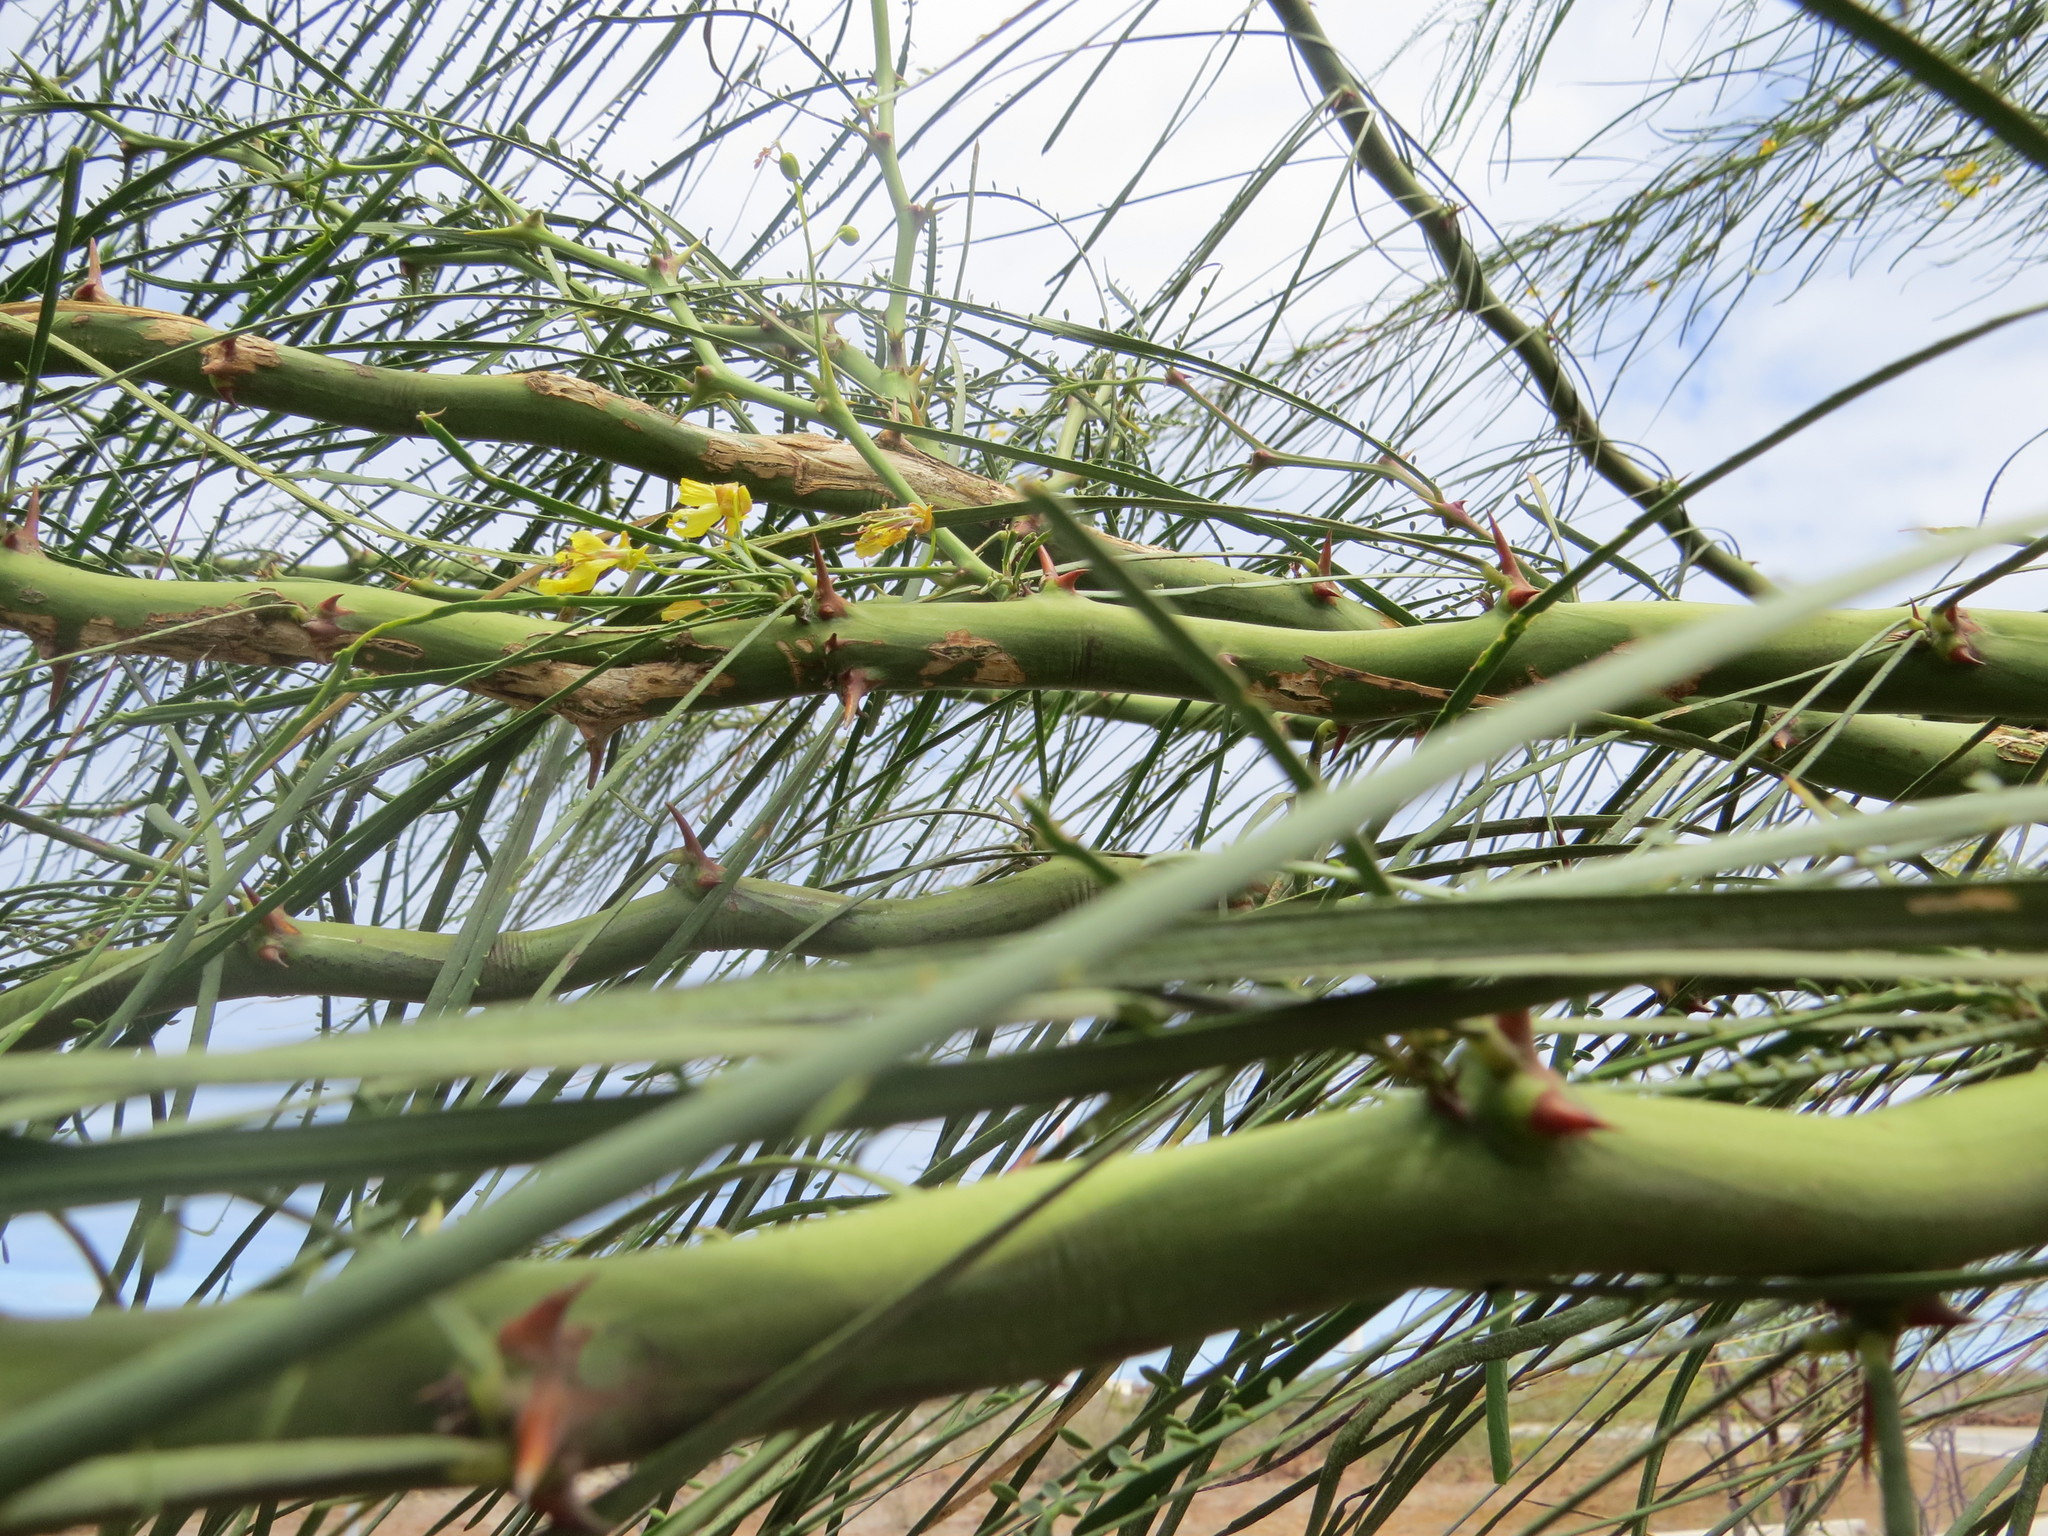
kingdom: Plantae
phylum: Tracheophyta
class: Magnoliopsida
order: Fabales
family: Fabaceae
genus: Parkinsonia
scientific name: Parkinsonia aculeata
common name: Jerusalem thorn
